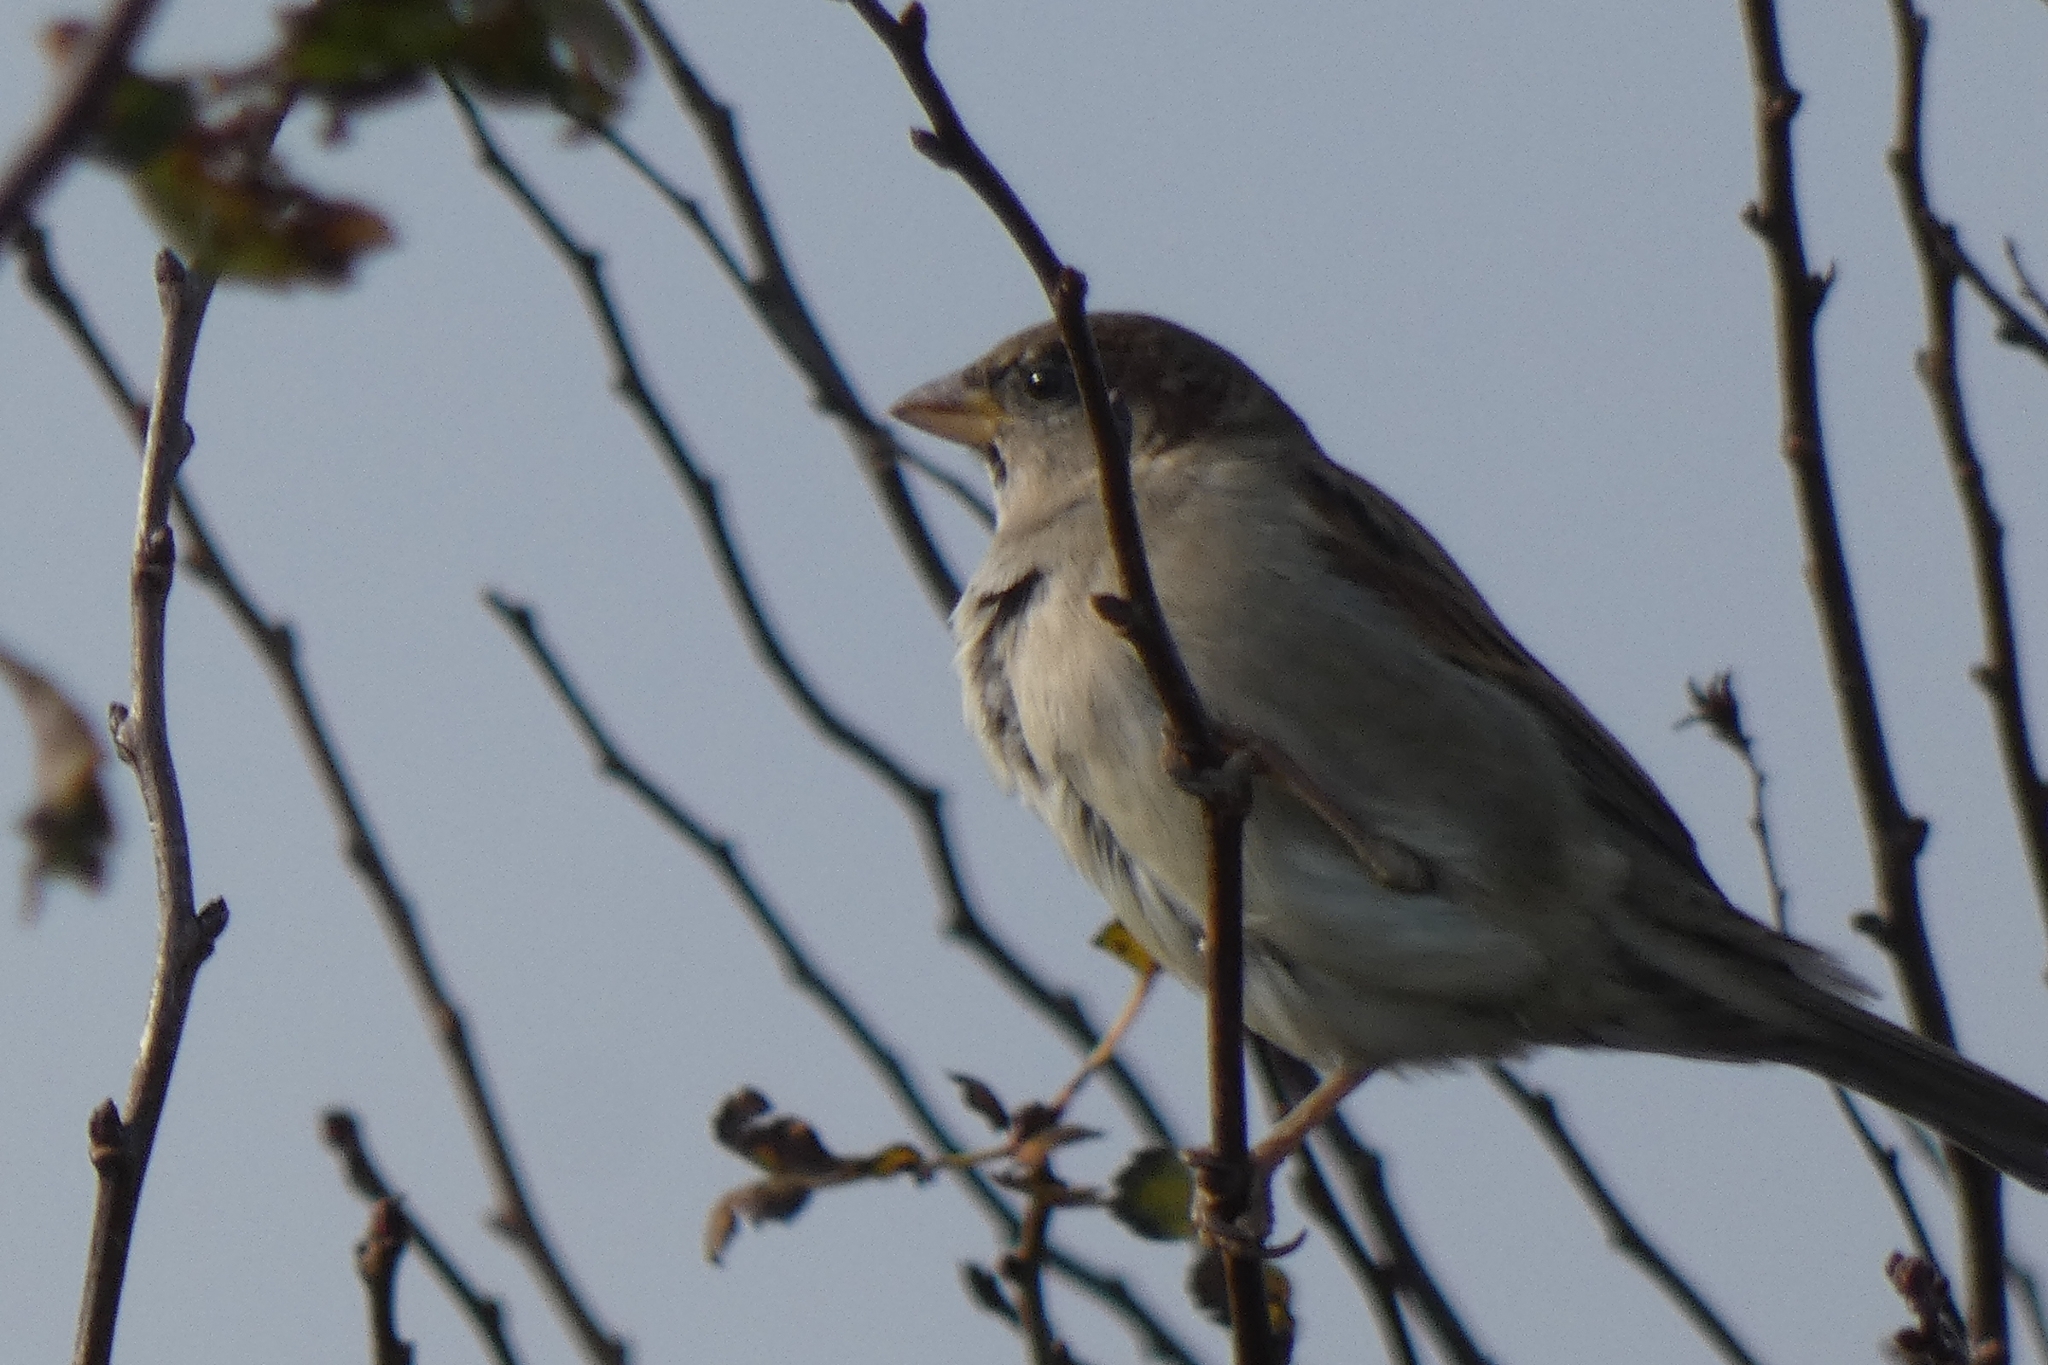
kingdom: Animalia
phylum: Chordata
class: Aves
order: Passeriformes
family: Passeridae
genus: Passer
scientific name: Passer domesticus
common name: House sparrow
